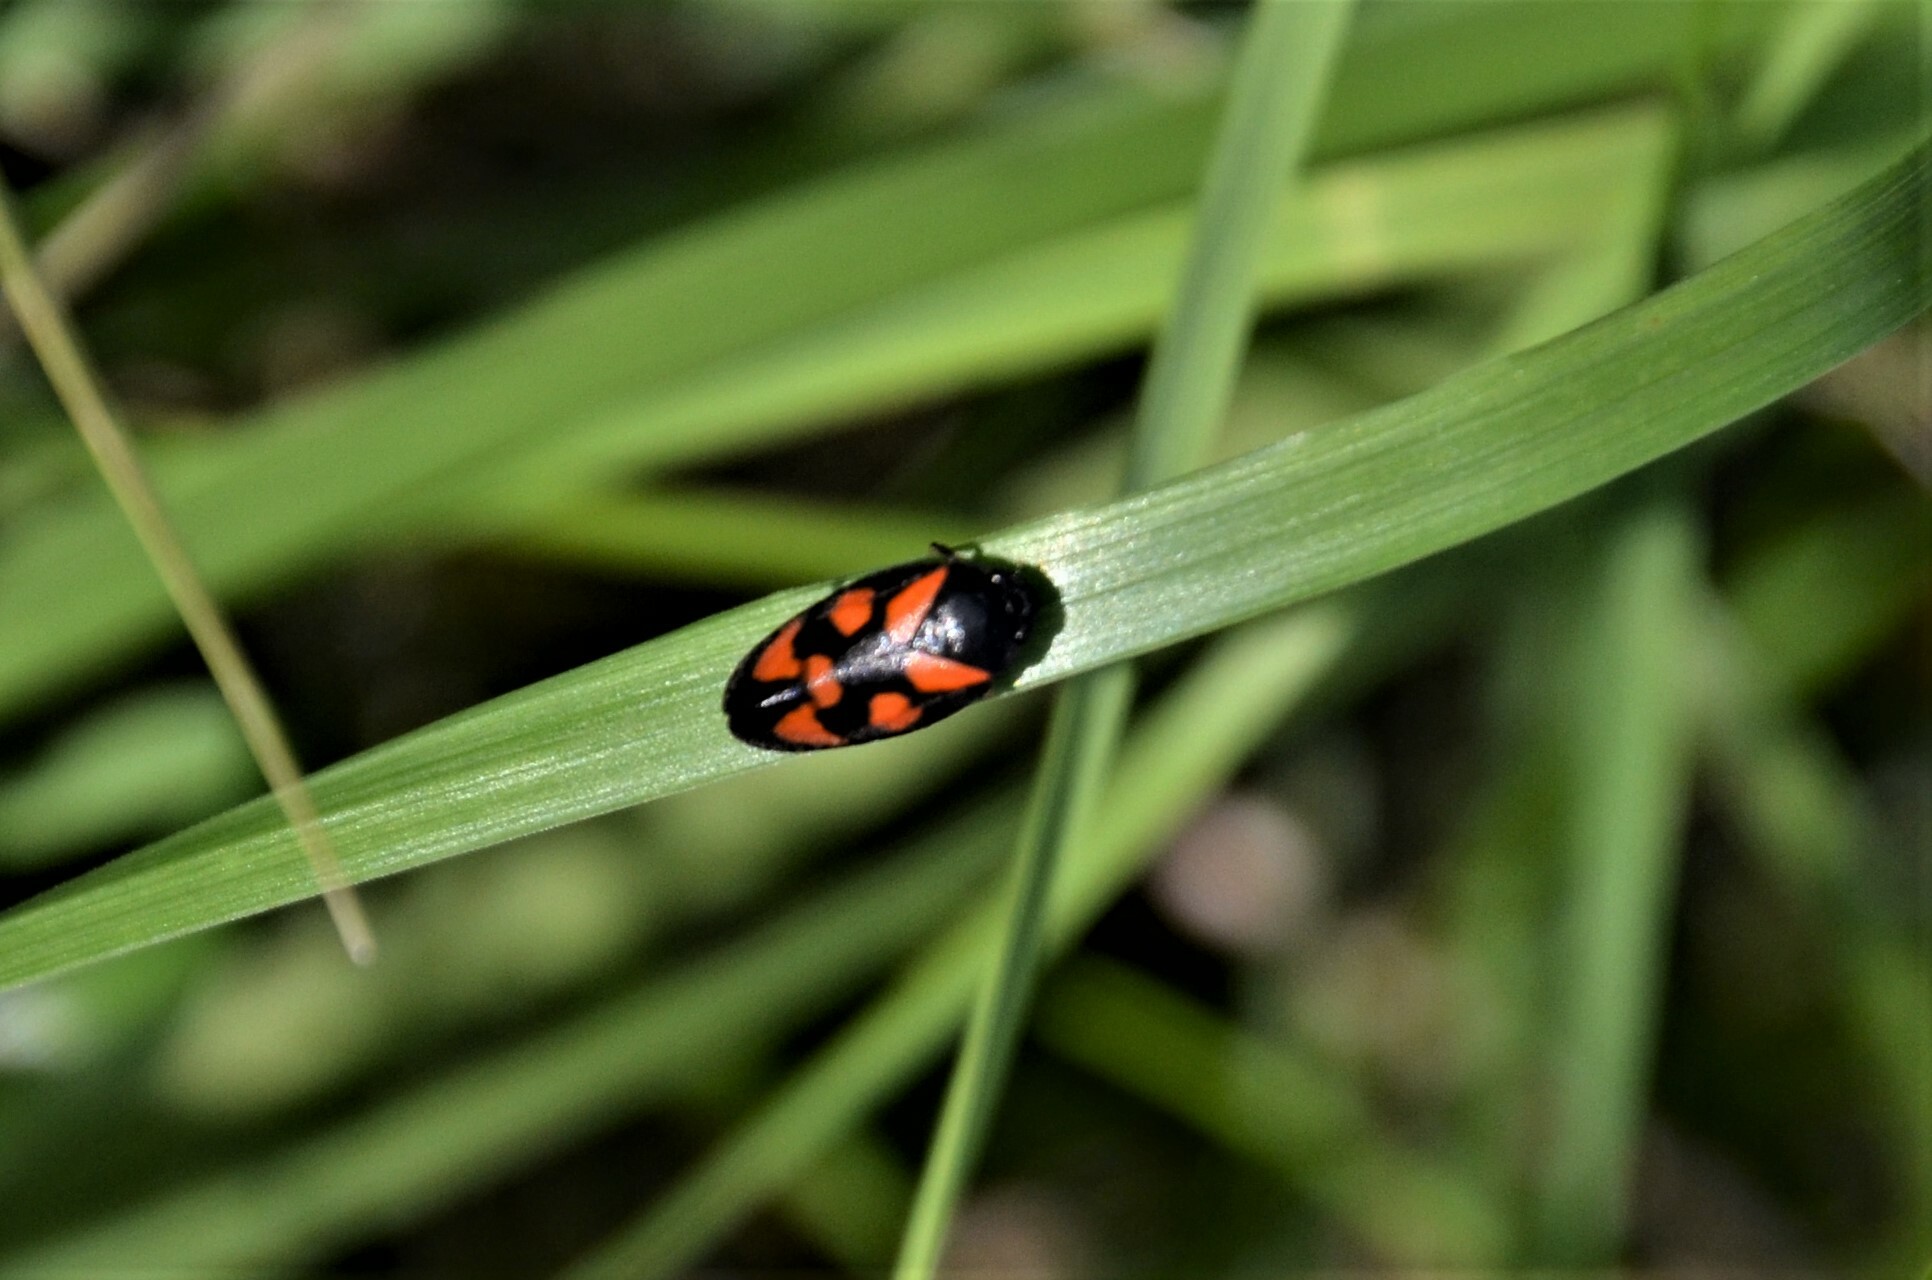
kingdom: Animalia
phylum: Arthropoda
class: Insecta
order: Hemiptera
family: Cercopidae
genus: Cercopis
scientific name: Cercopis vulnerata
